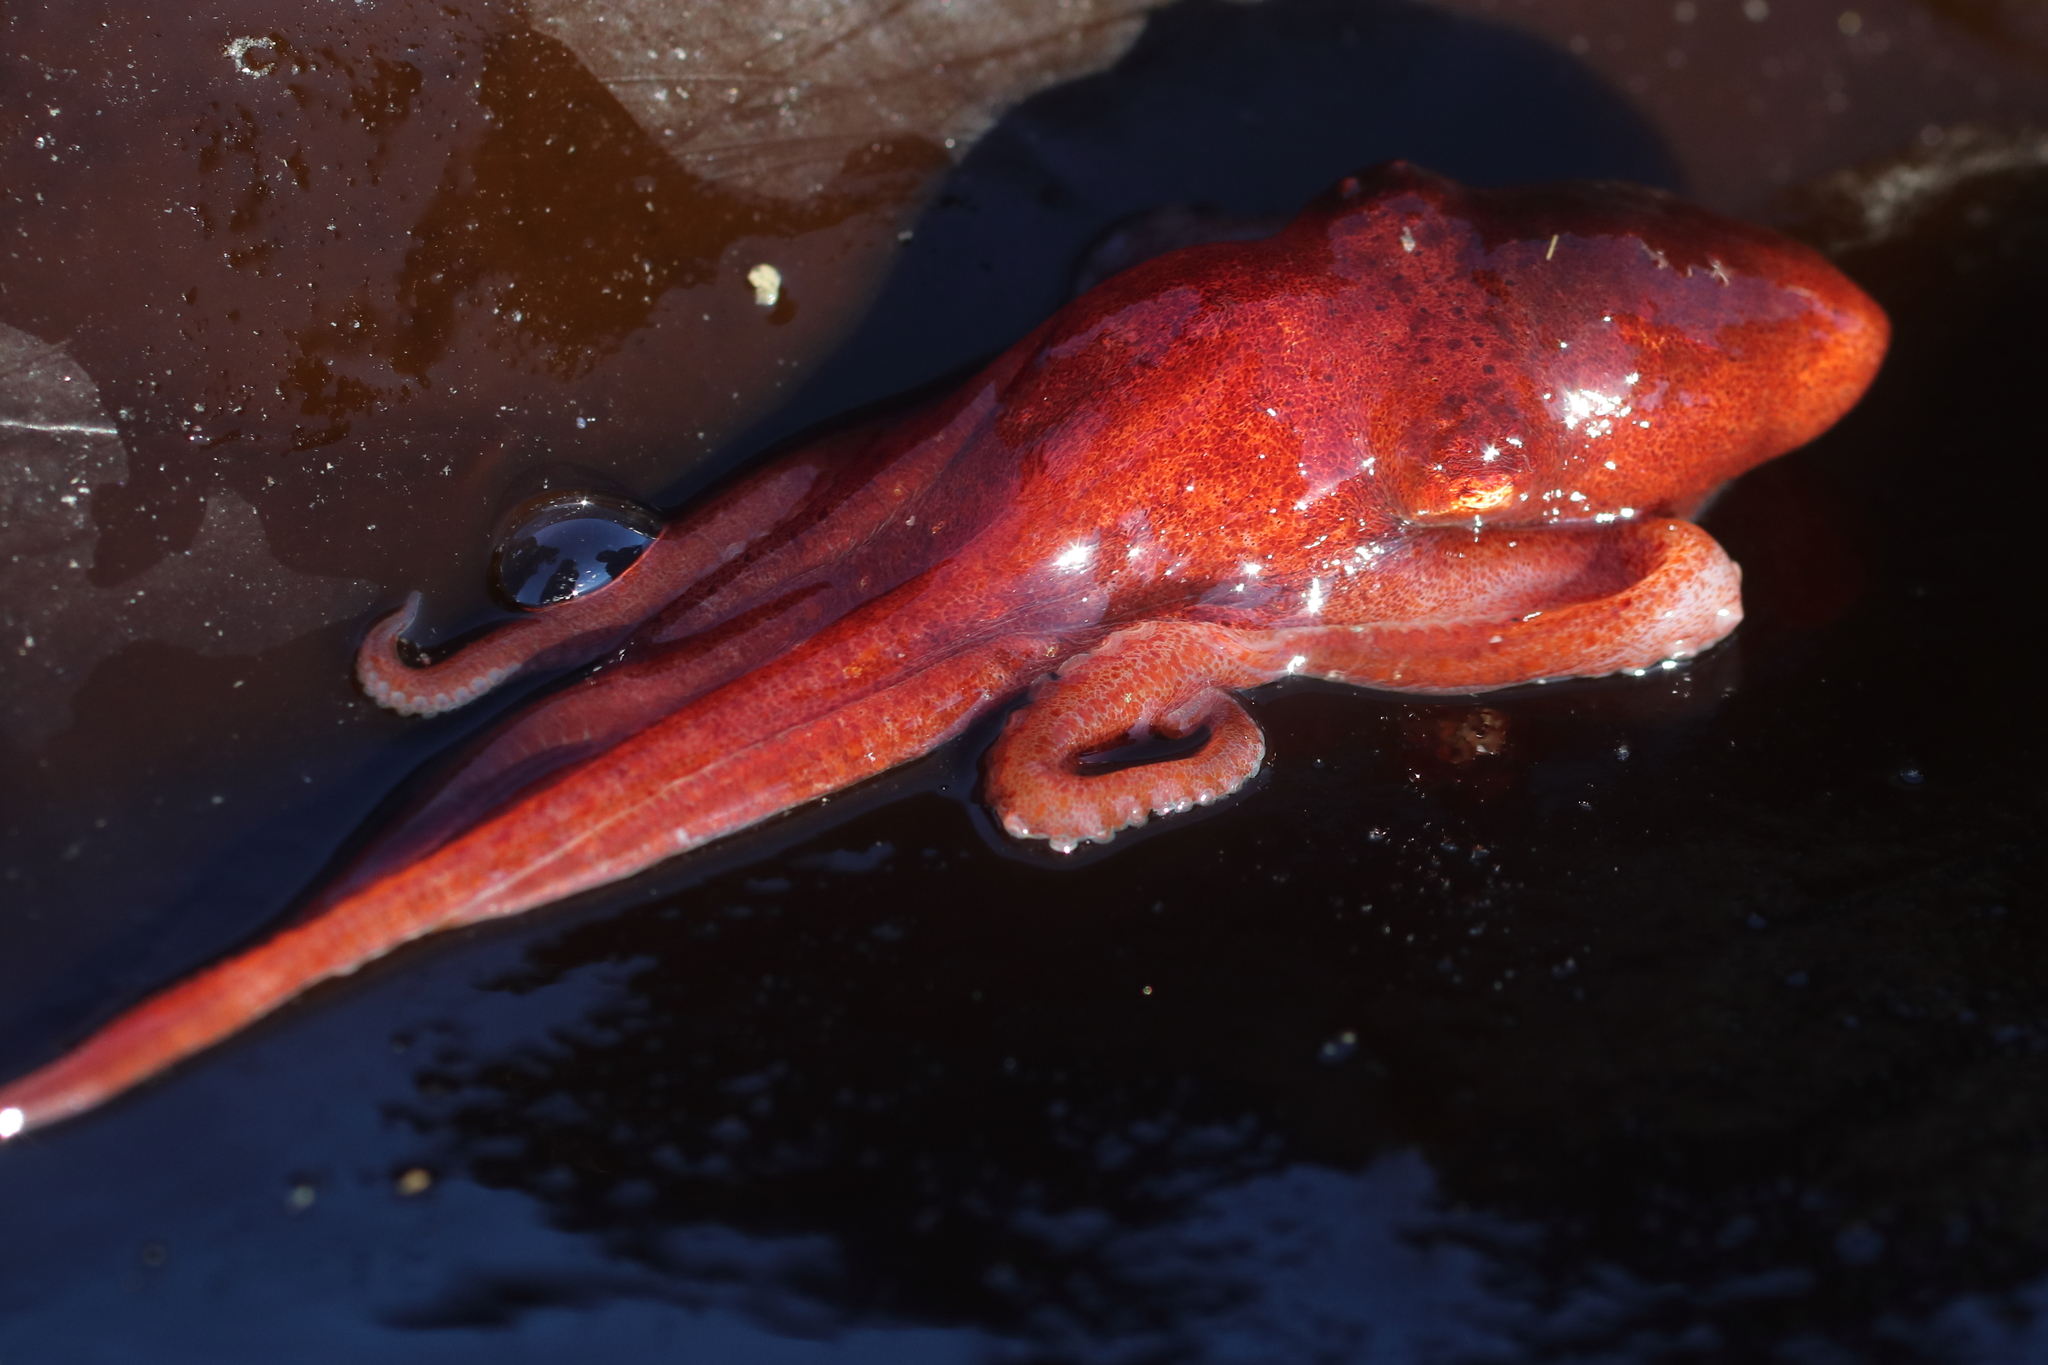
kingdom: Animalia
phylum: Mollusca
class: Cephalopoda
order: Octopoda
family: Enteroctopodidae
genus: Enteroctopus
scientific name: Enteroctopus dofleini
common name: Giant north pacific octopus
